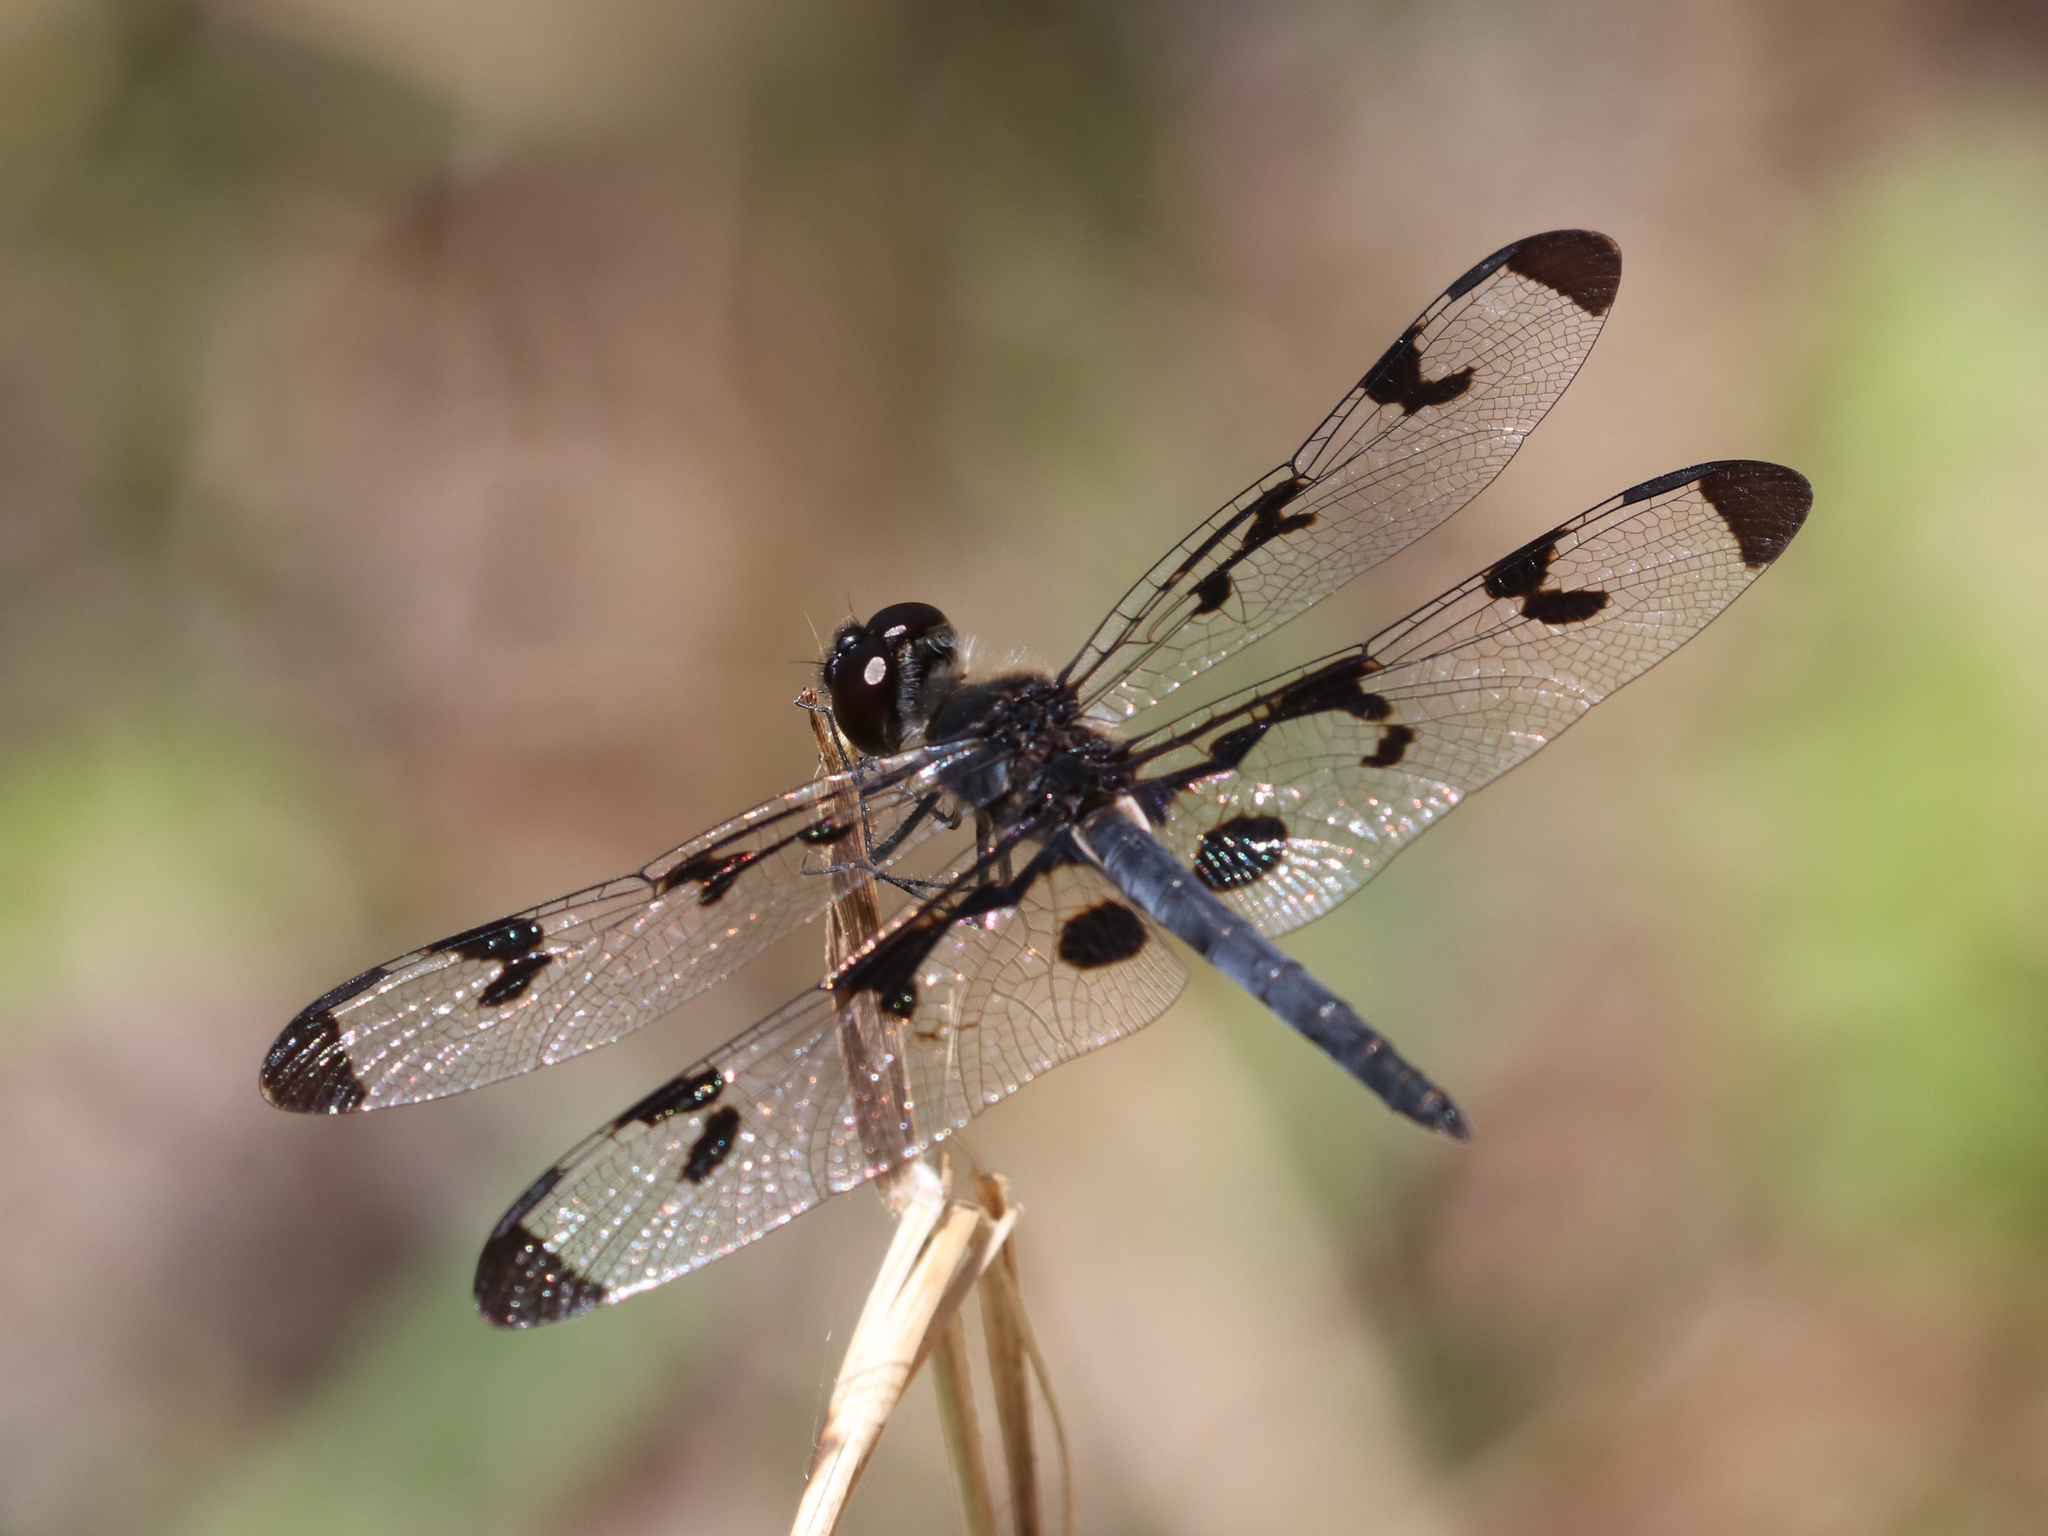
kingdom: Animalia
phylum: Arthropoda
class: Insecta
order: Odonata
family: Libellulidae
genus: Celithemis
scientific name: Celithemis fasciata
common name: Banded pennant
